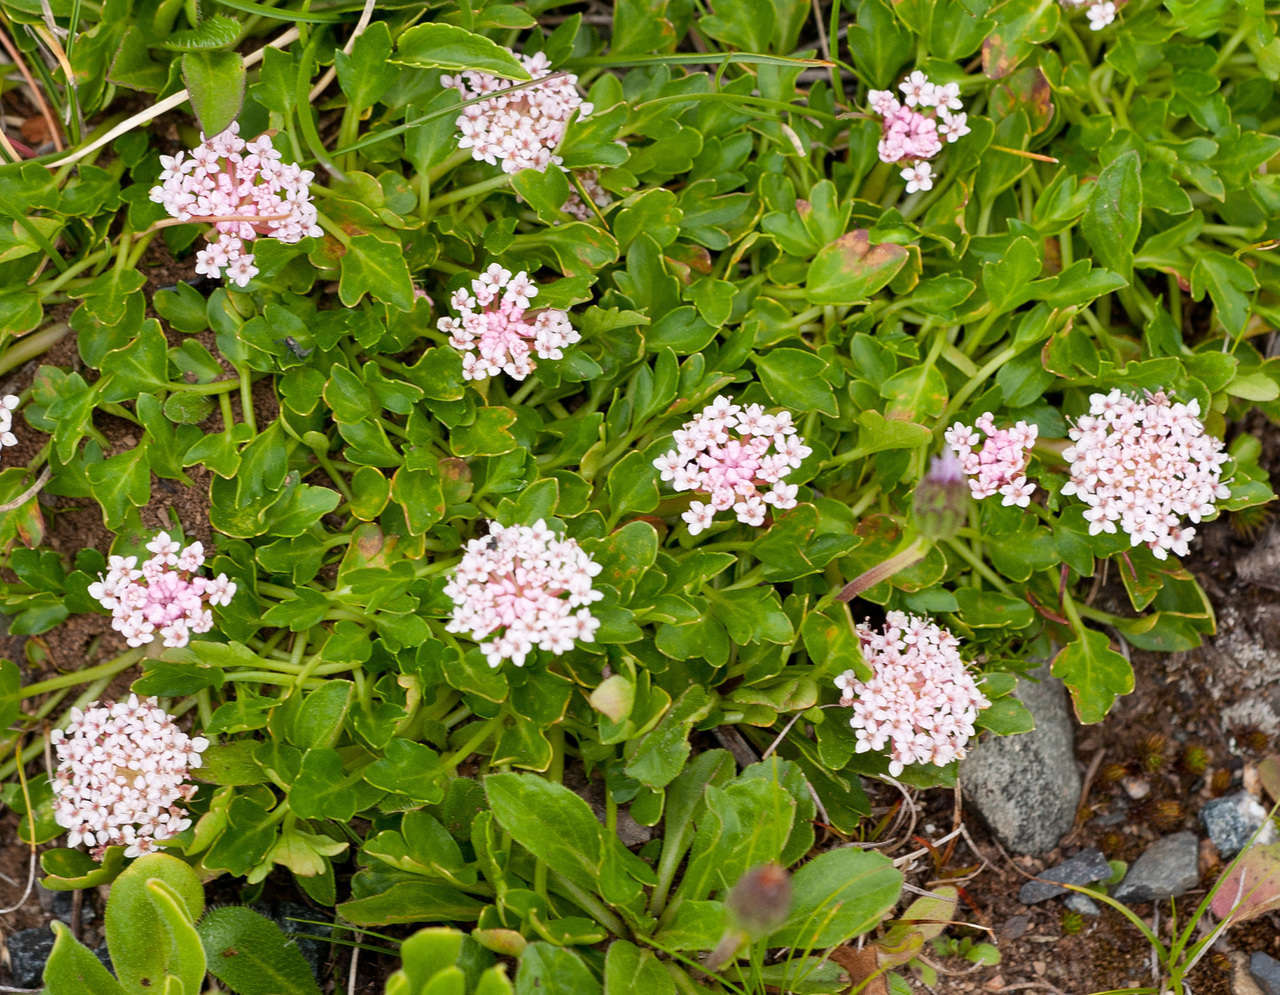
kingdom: Plantae
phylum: Tracheophyta
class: Magnoliopsida
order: Apiales
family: Araliaceae
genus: Trachymene
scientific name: Trachymene humilis
